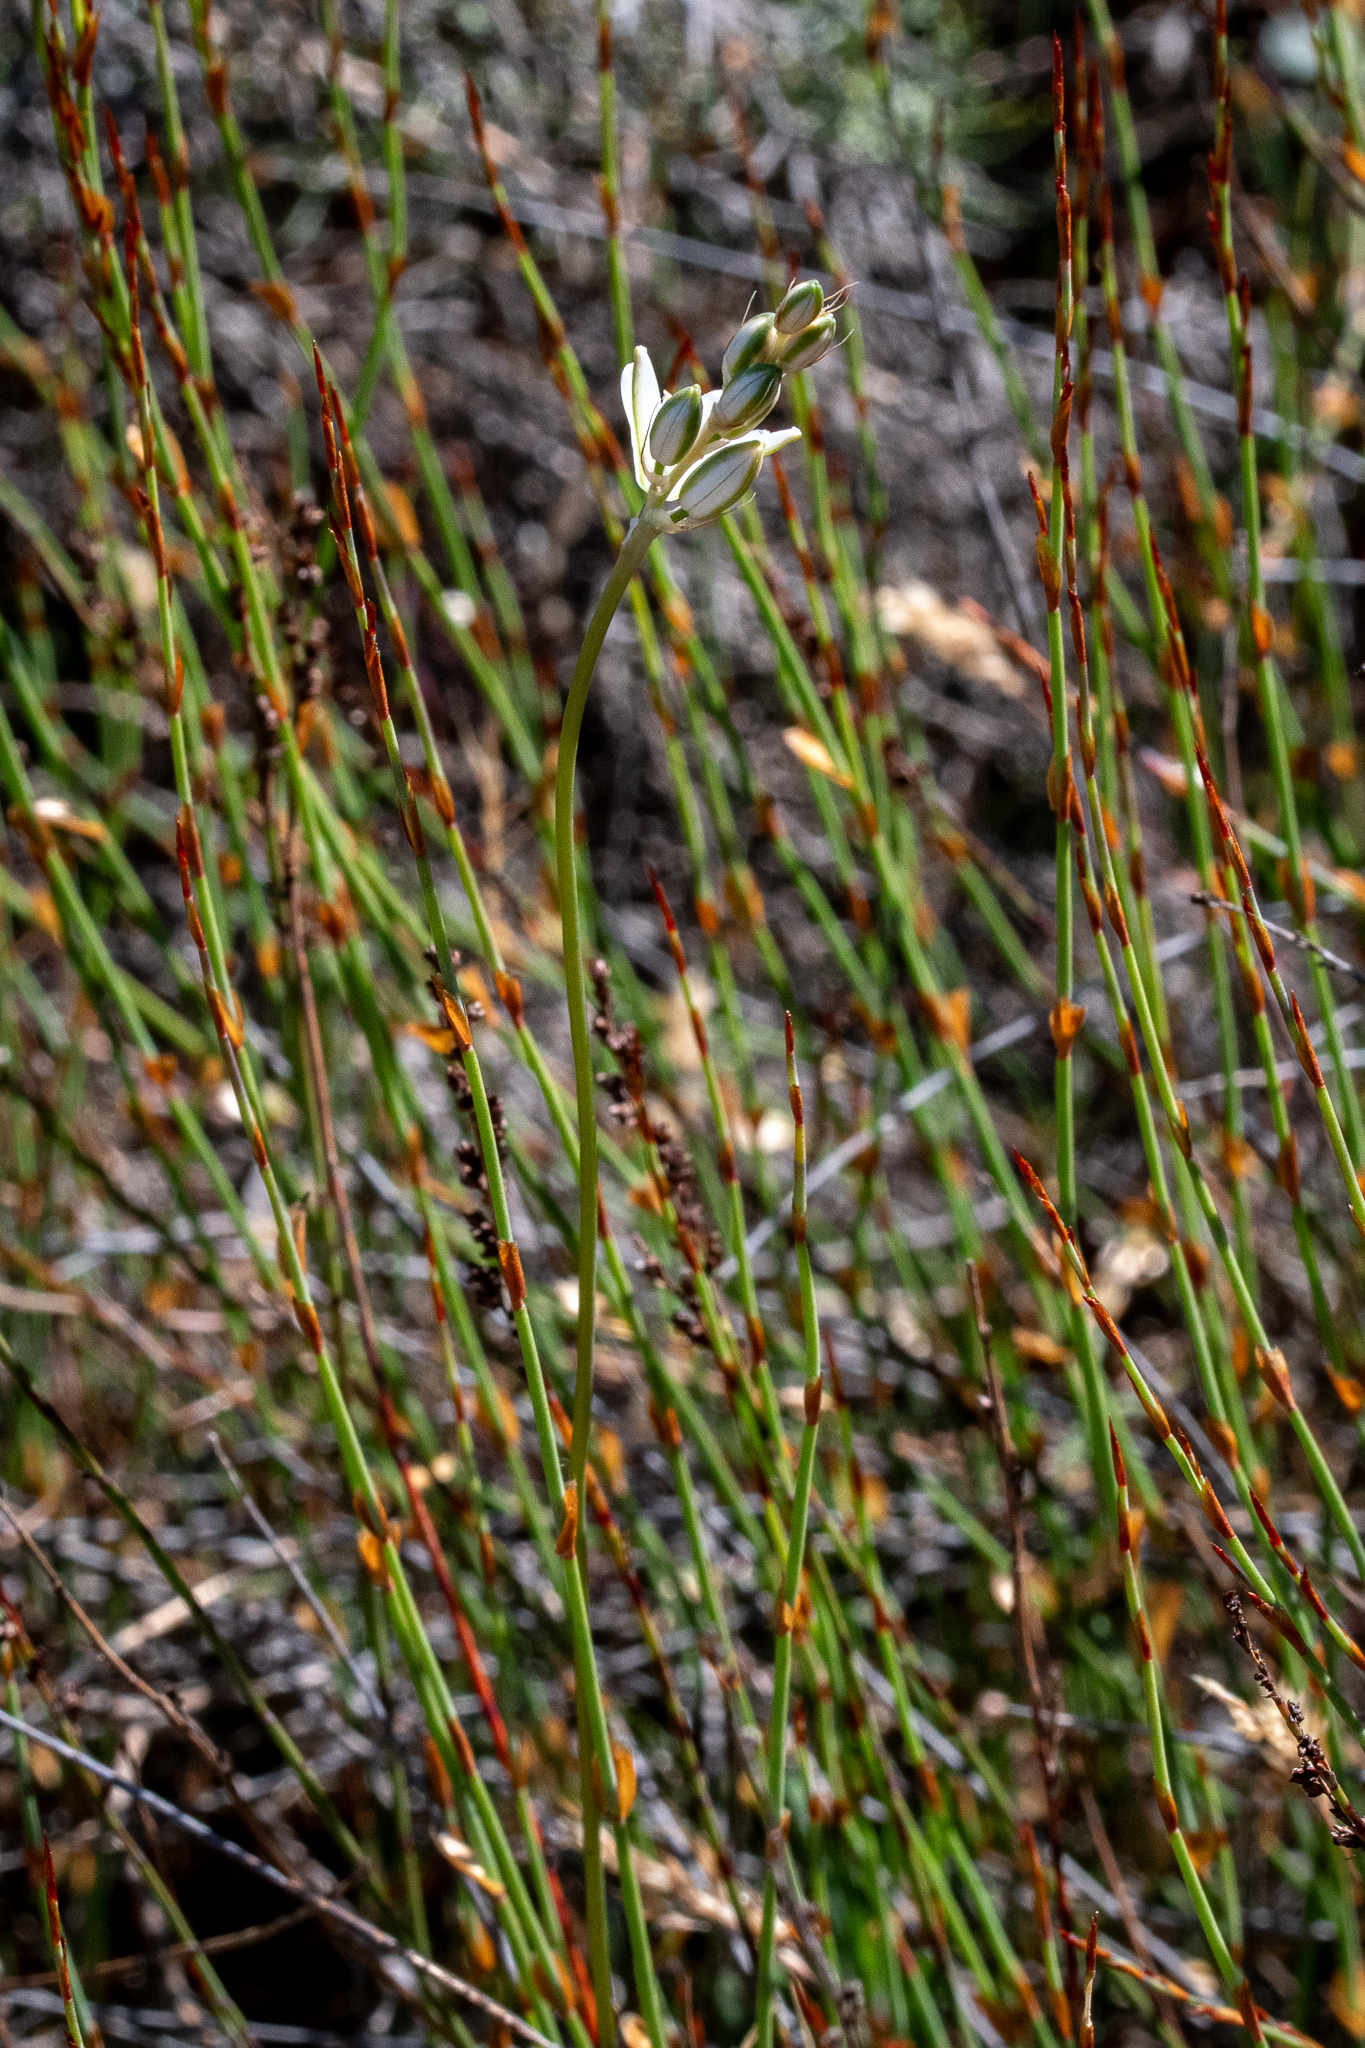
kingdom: Plantae
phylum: Tracheophyta
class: Liliopsida
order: Asparagales
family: Asparagaceae
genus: Ornithogalum
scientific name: Ornithogalum graminifolium
